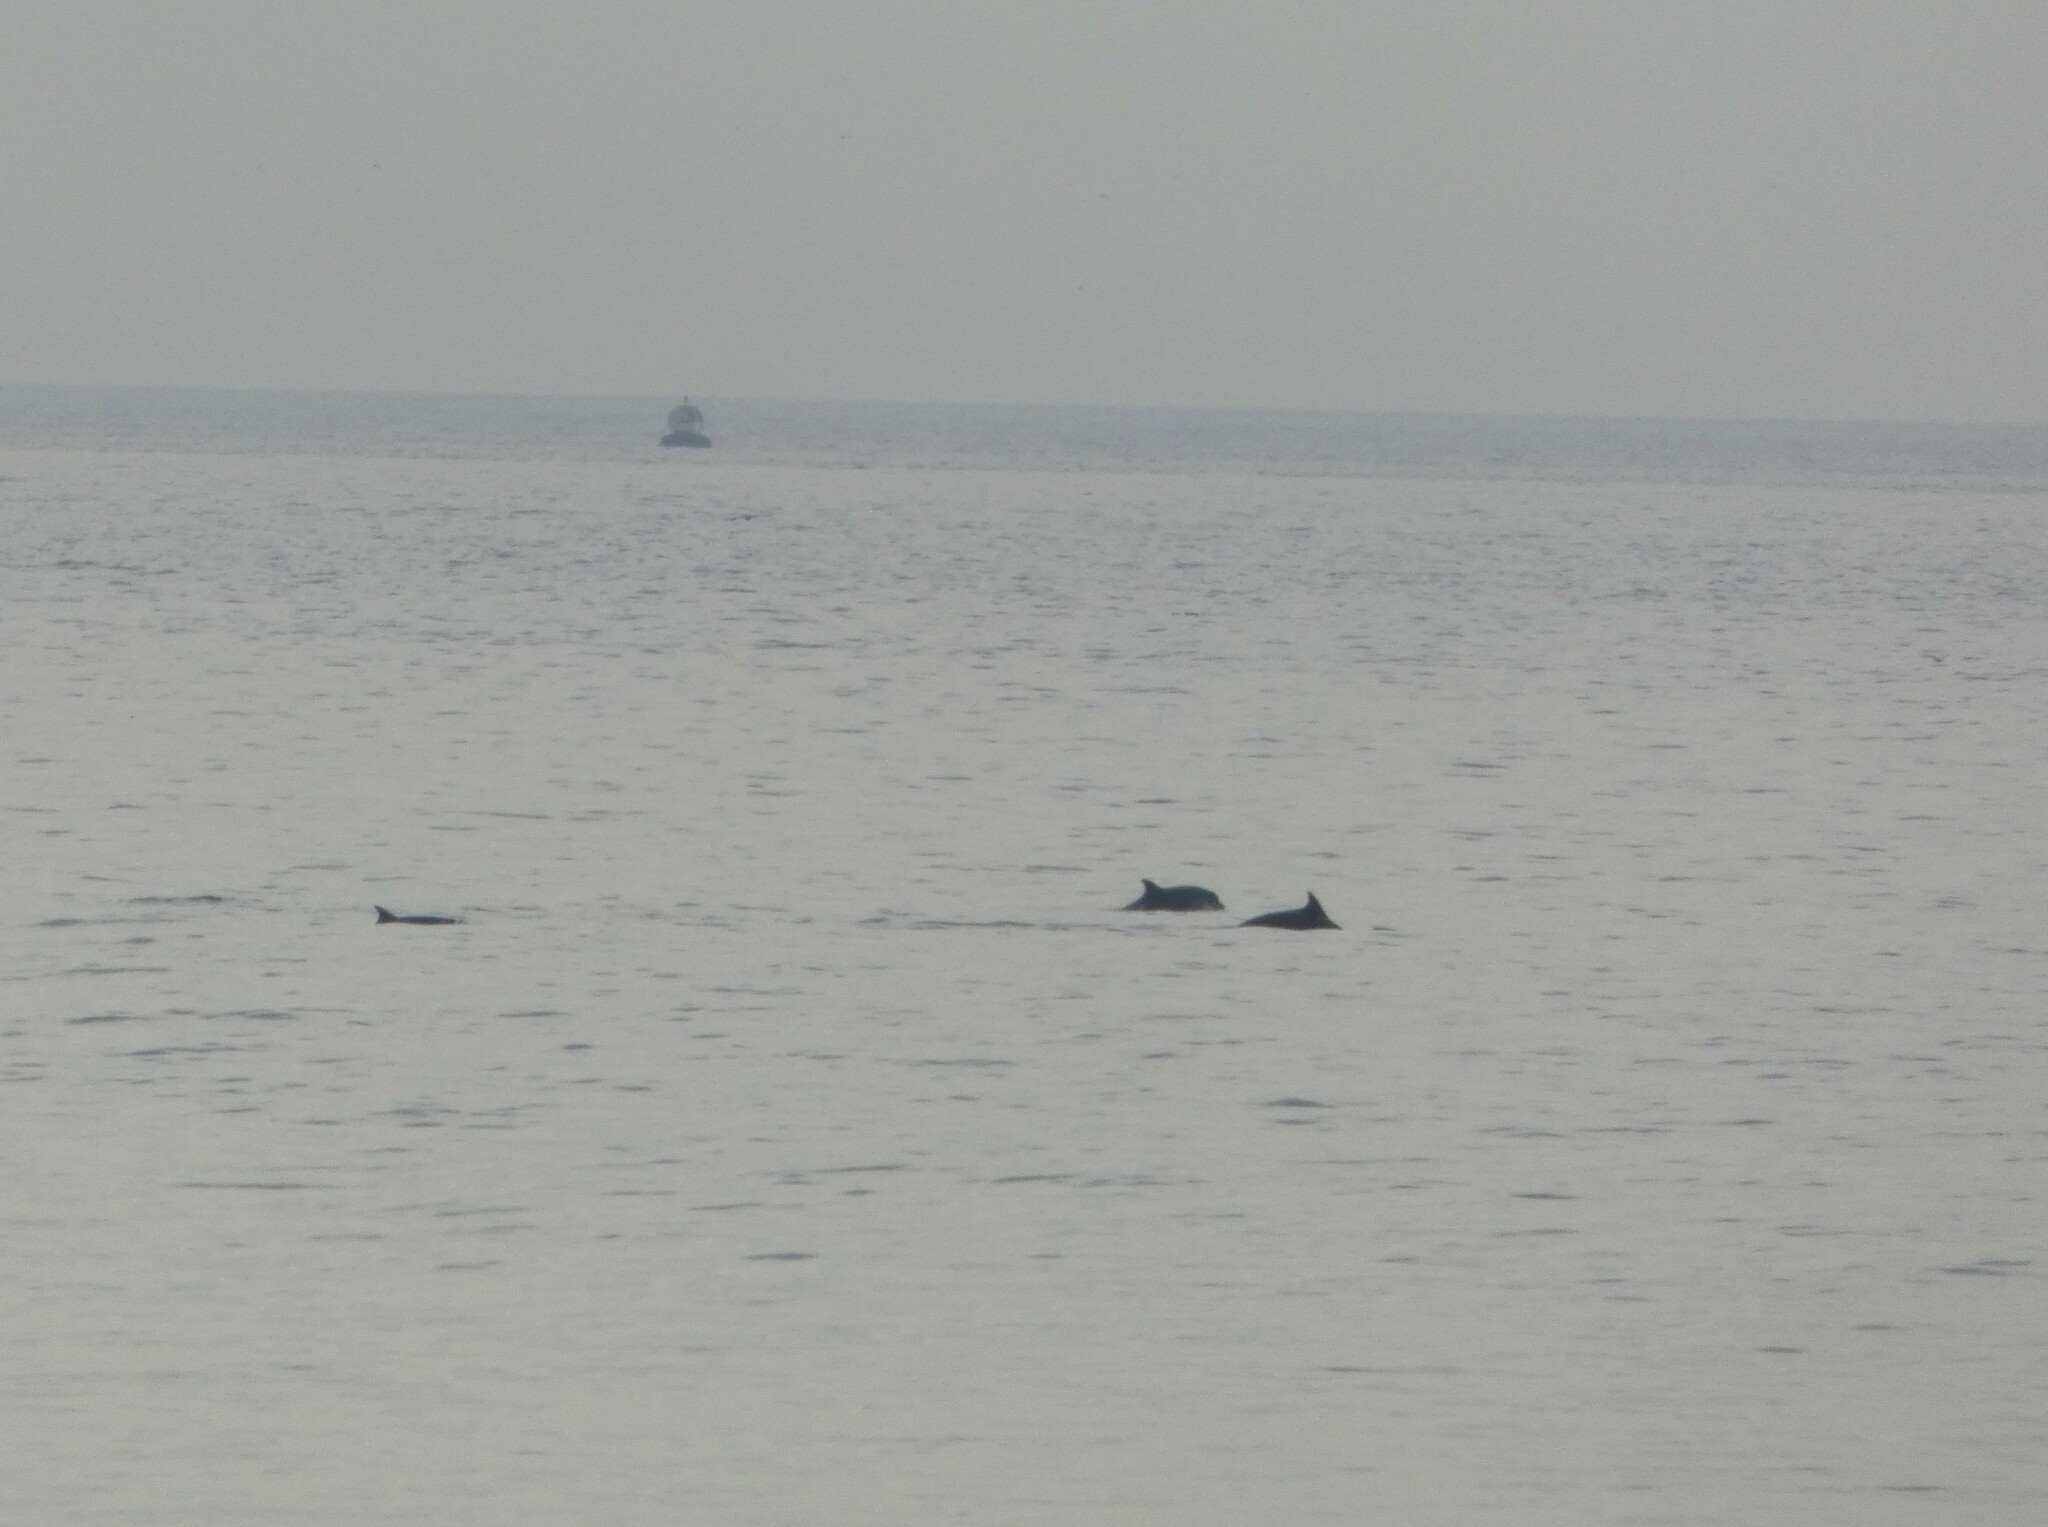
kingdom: Animalia
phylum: Chordata
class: Mammalia
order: Cetacea
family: Delphinidae
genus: Tursiops
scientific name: Tursiops truncatus
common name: Bottlenose dolphin
